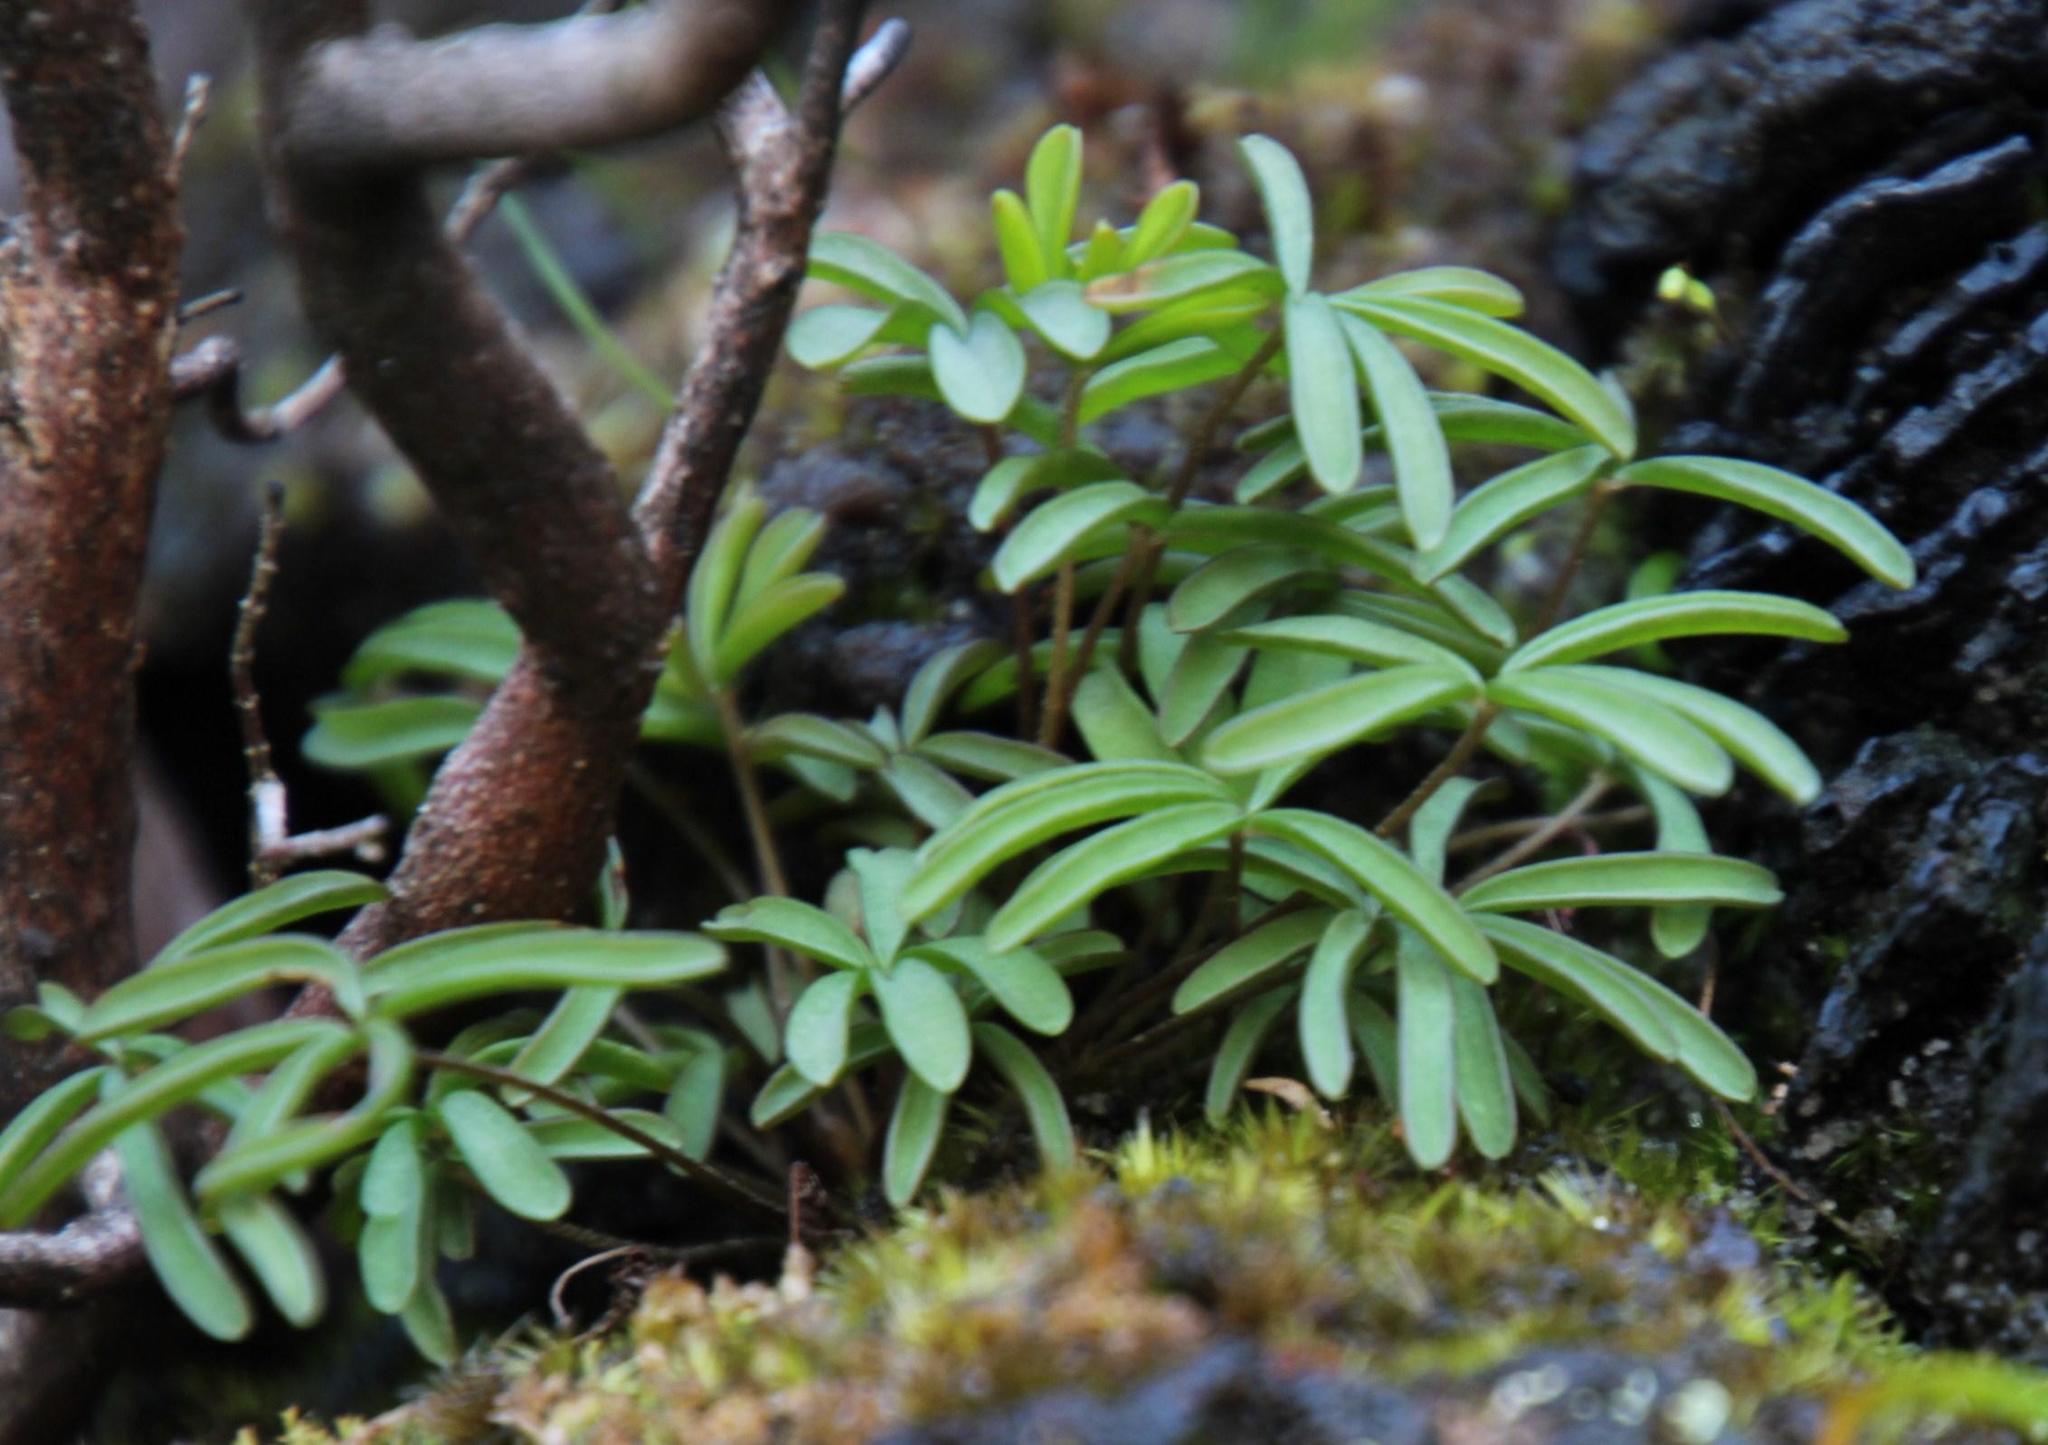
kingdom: Plantae
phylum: Tracheophyta
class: Pinopsida
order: Pinales
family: Podocarpaceae
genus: Podocarpus
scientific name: Podocarpus latifolius
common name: True yellowwood
